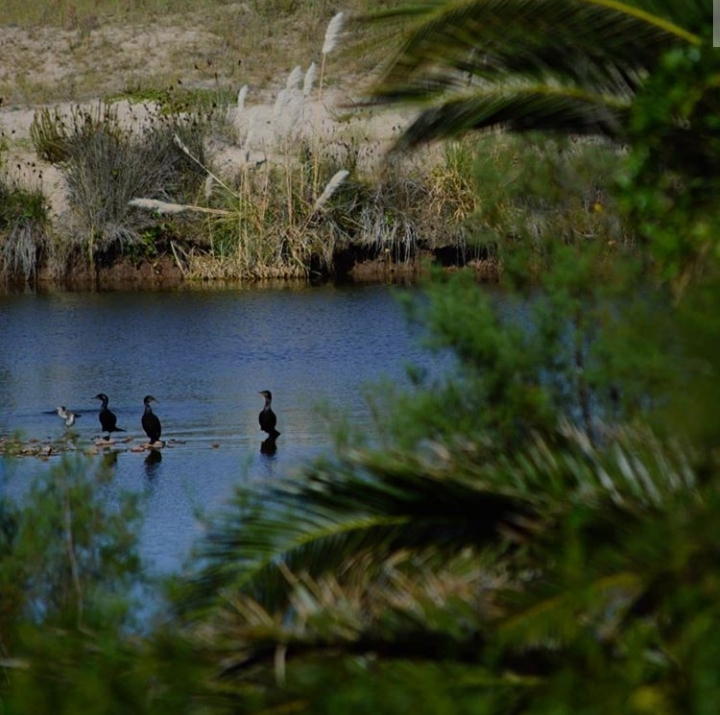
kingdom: Animalia
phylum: Chordata
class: Aves
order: Suliformes
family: Phalacrocoracidae
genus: Phalacrocorax
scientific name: Phalacrocorax brasilianus
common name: Neotropic cormorant
